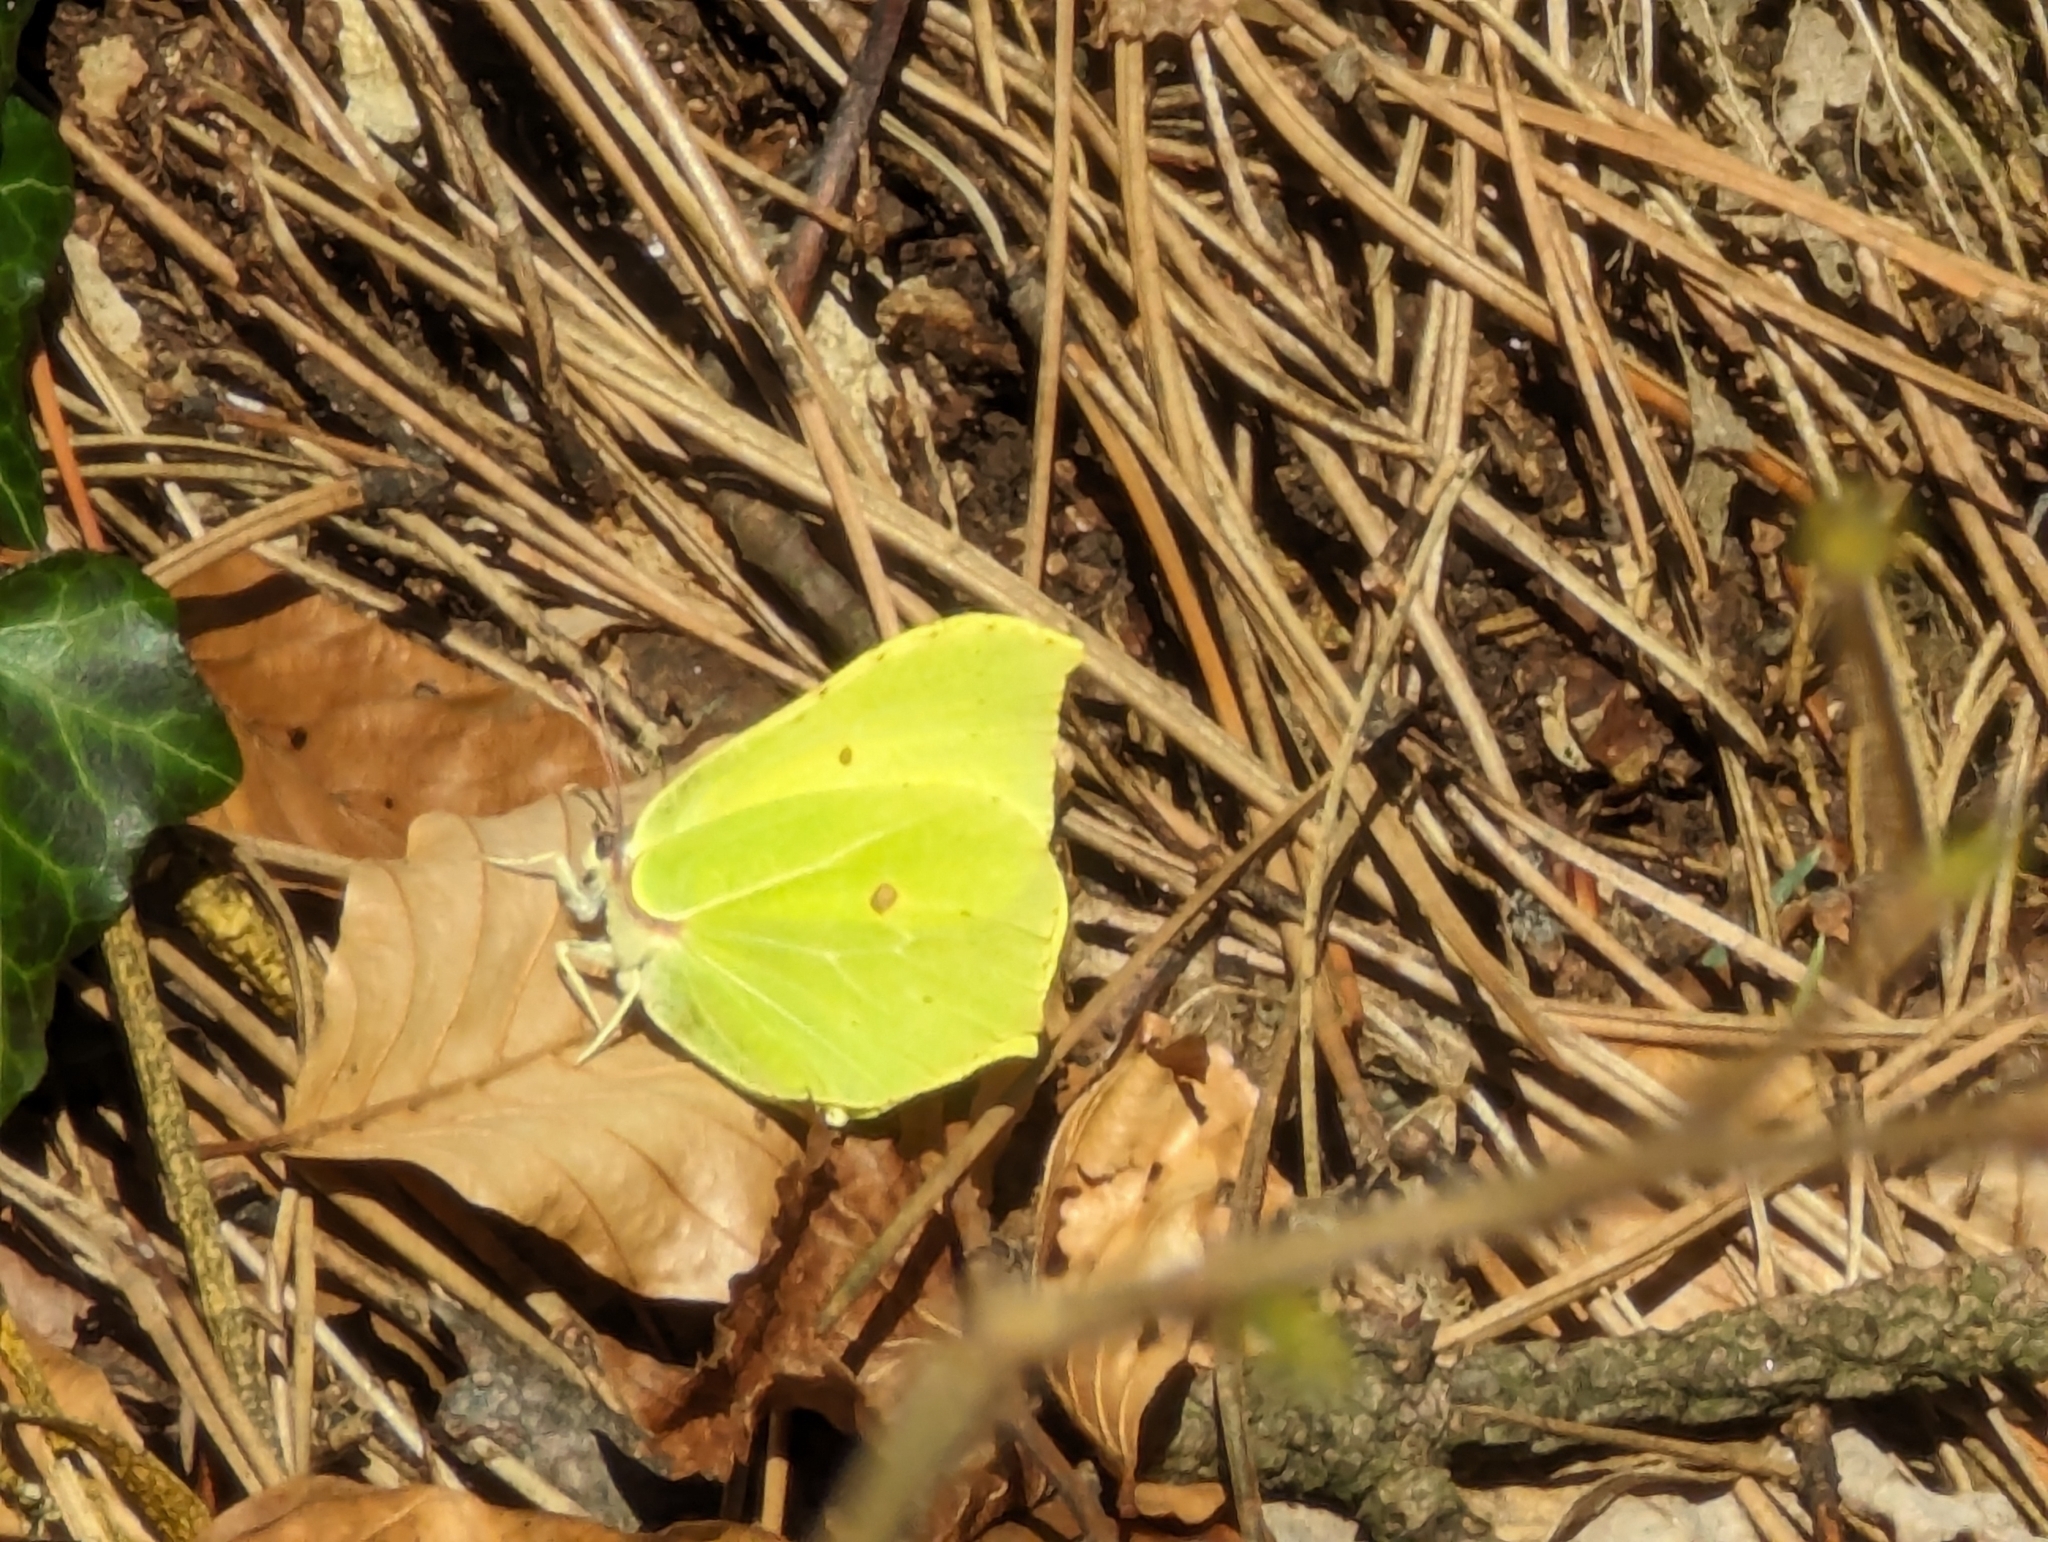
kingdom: Animalia
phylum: Arthropoda
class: Insecta
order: Lepidoptera
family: Pieridae
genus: Gonepteryx
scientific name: Gonepteryx rhamni
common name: Brimstone
